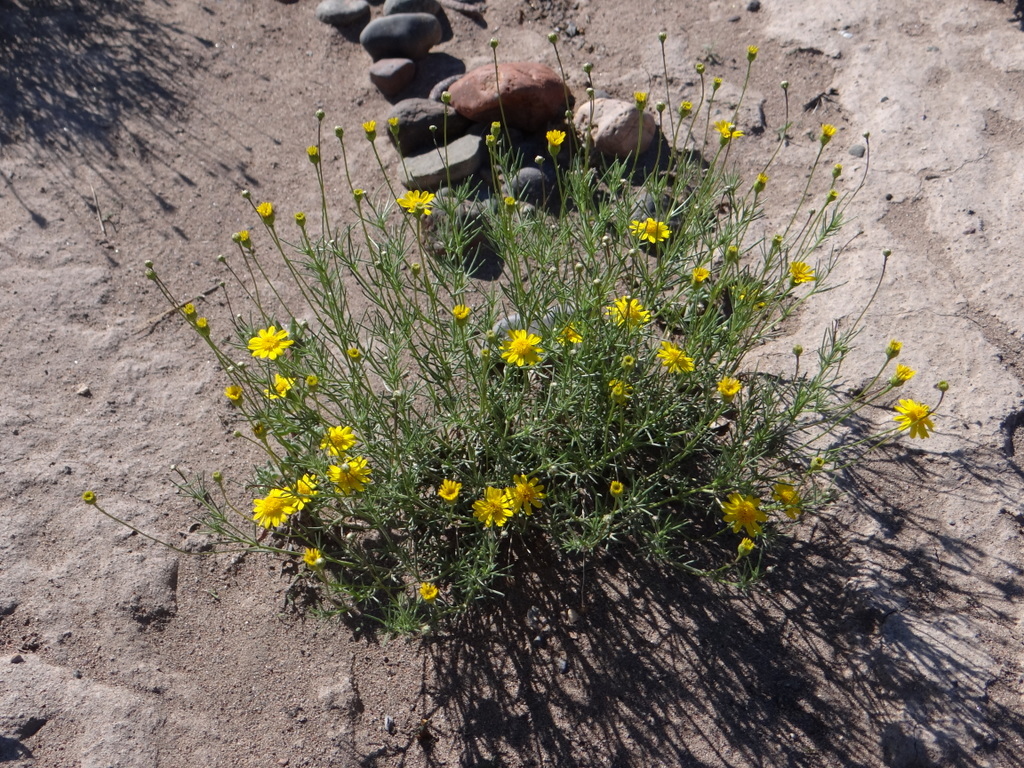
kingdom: Plantae
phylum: Tracheophyta
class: Magnoliopsida
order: Asterales
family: Asteraceae
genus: Thymophylla
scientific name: Thymophylla pentachaeta
